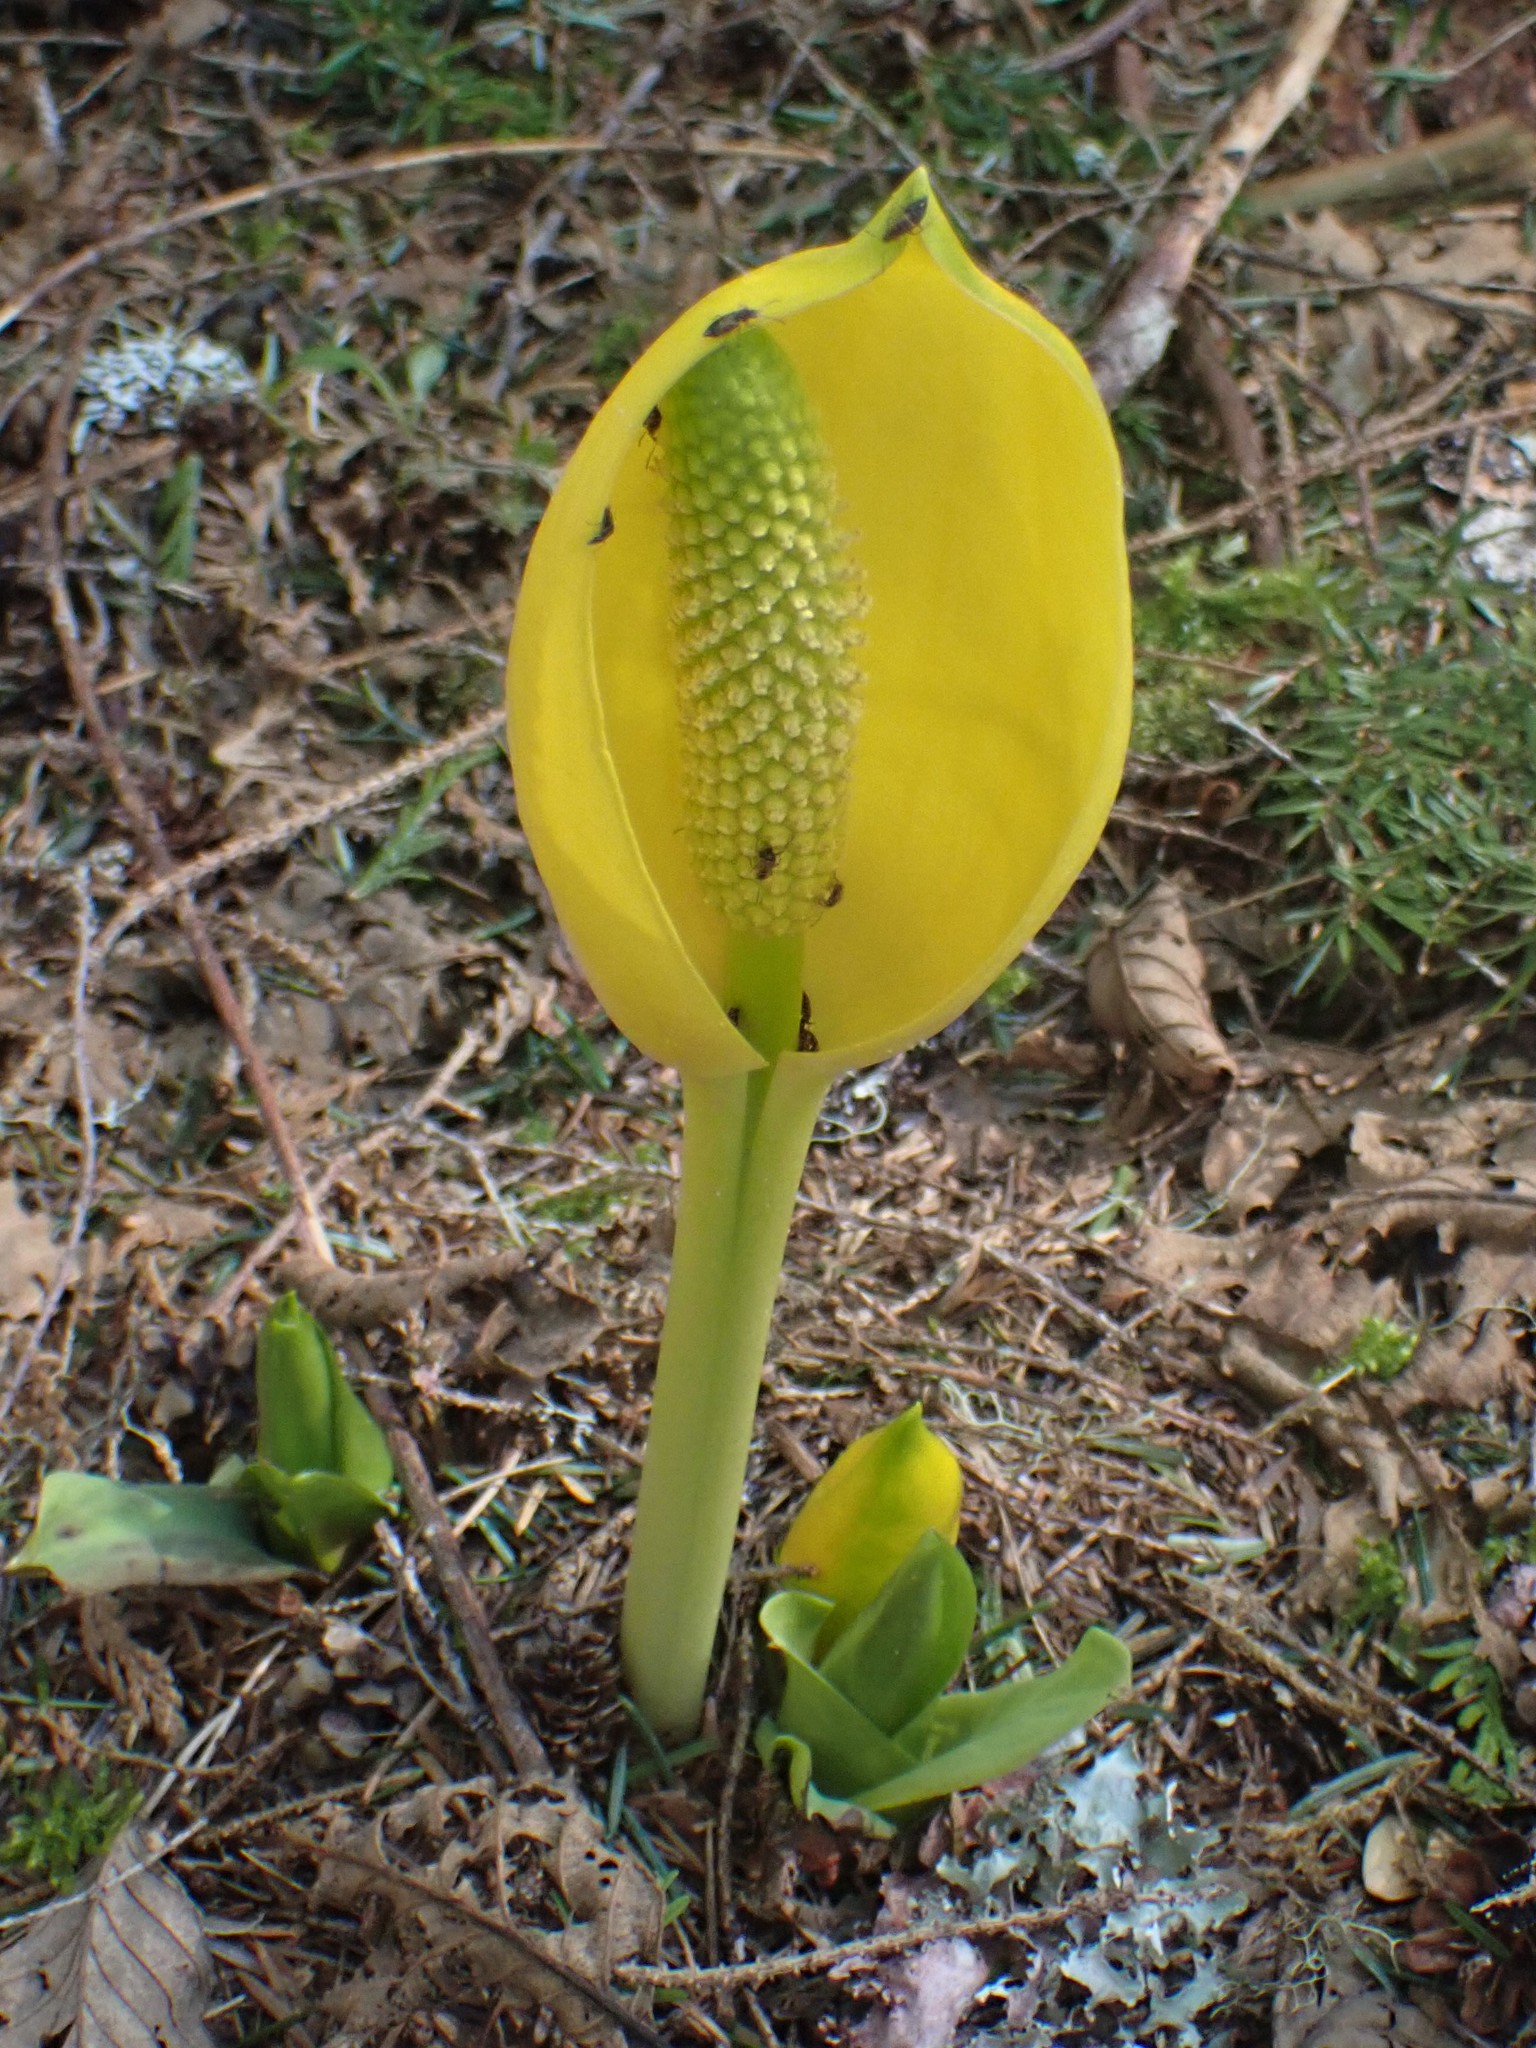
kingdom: Plantae
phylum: Tracheophyta
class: Liliopsida
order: Alismatales
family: Araceae
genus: Lysichiton
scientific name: Lysichiton americanus
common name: American skunk cabbage
